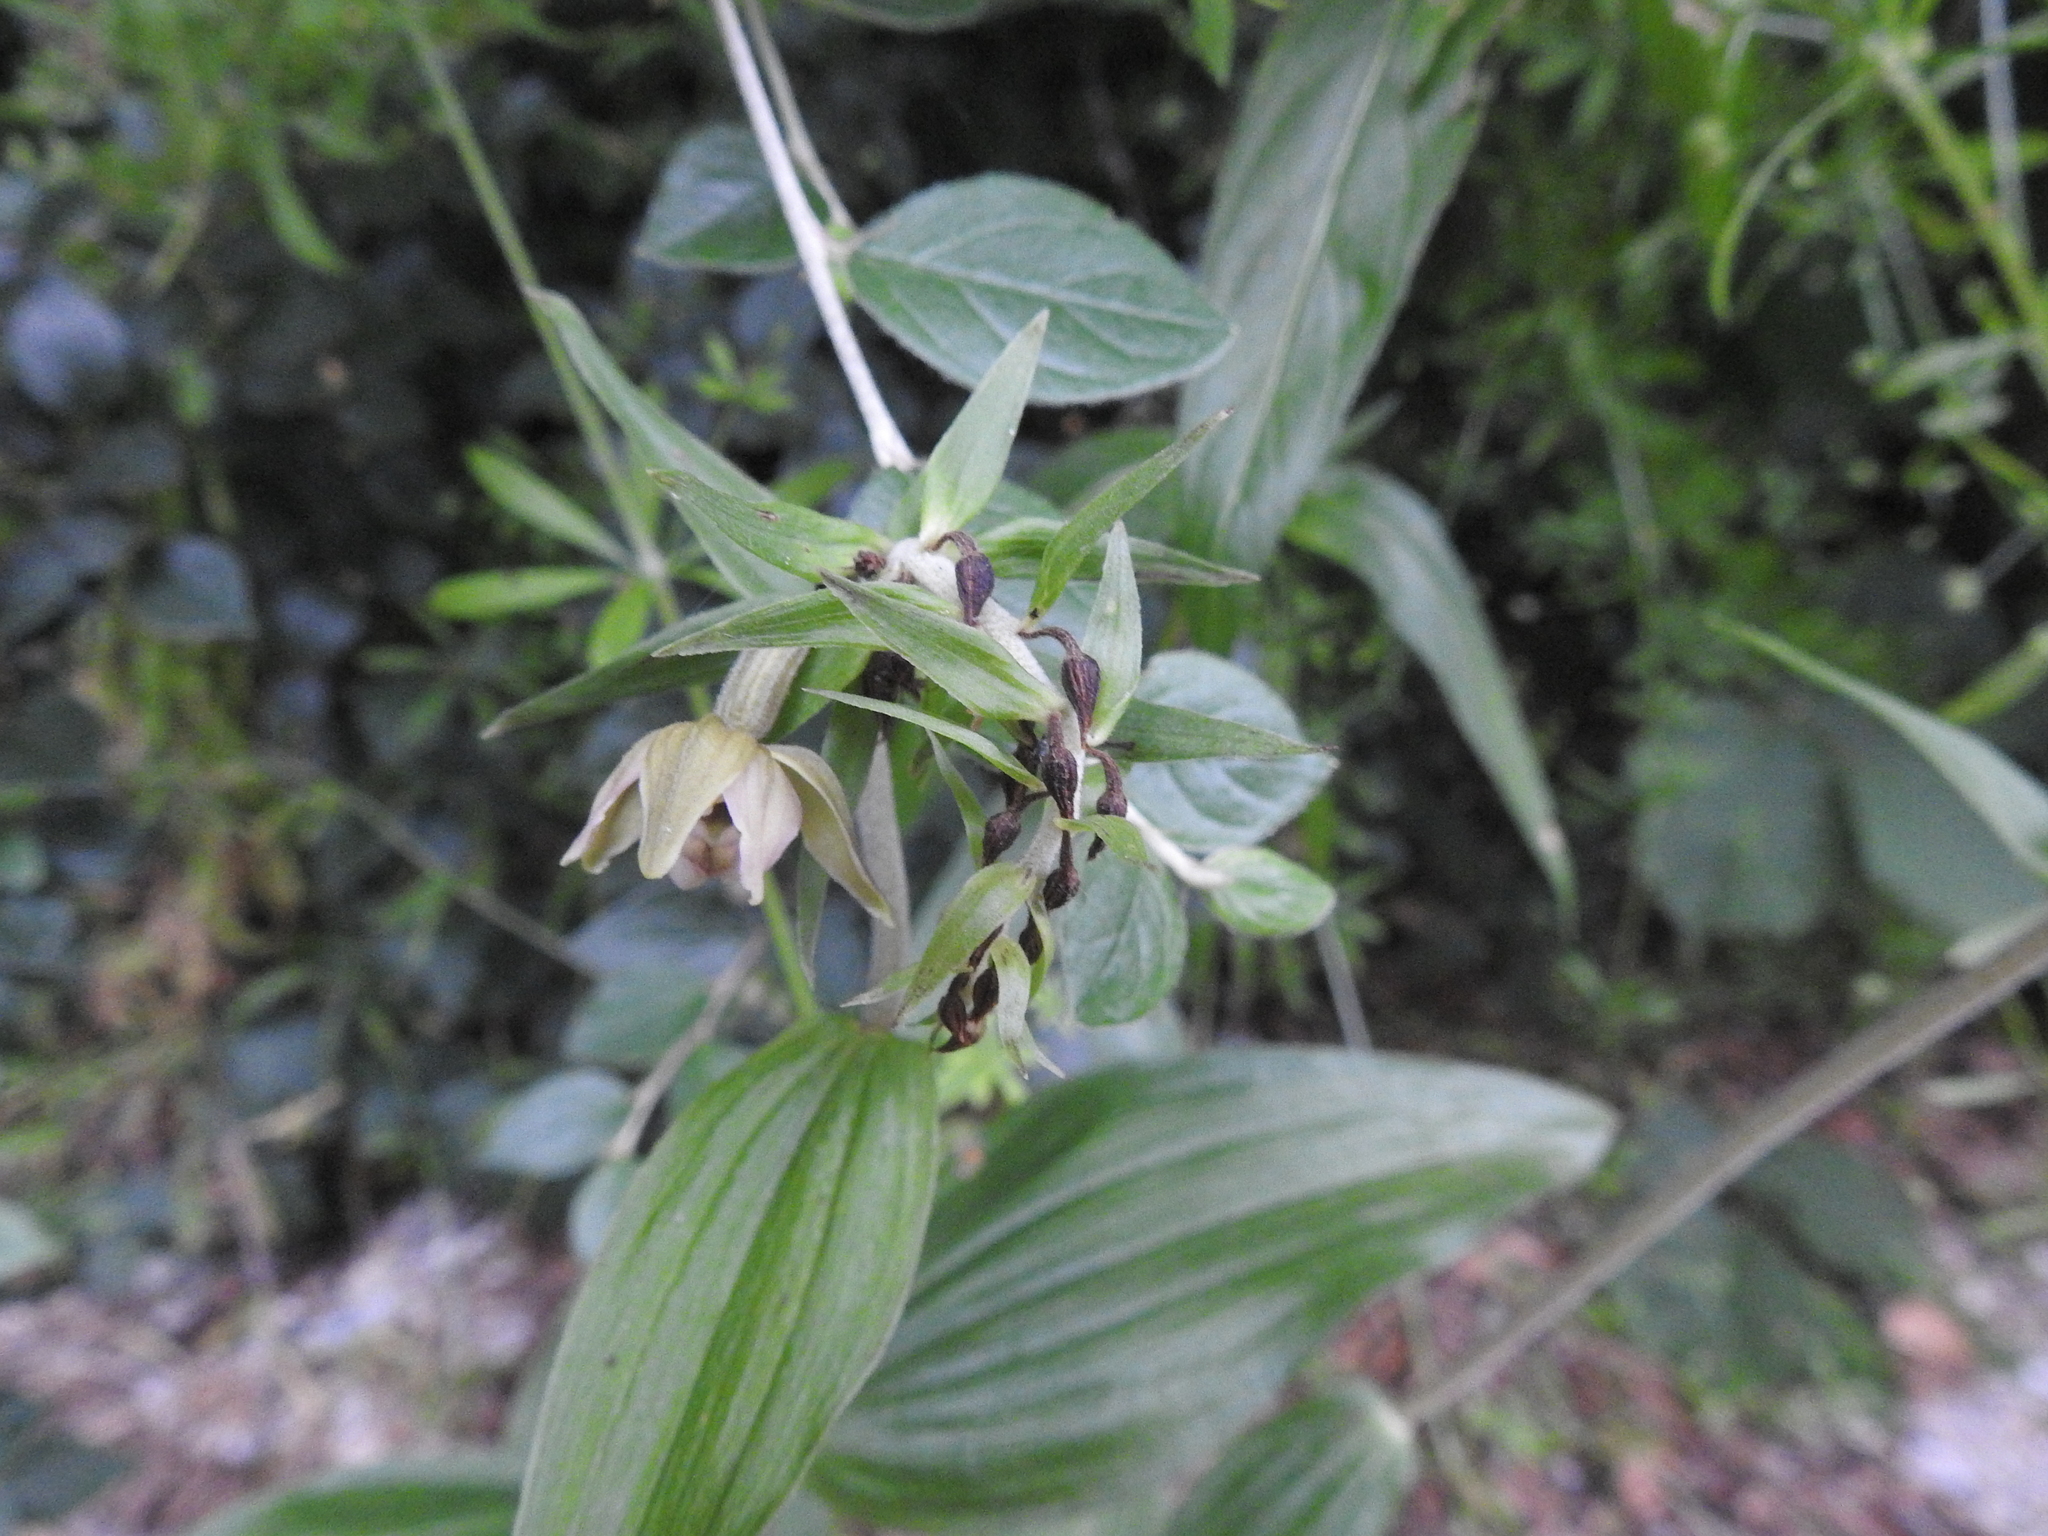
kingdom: Plantae
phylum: Tracheophyta
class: Liliopsida
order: Asparagales
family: Orchidaceae
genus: Epipactis
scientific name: Epipactis helleborine
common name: Broad-leaved helleborine
